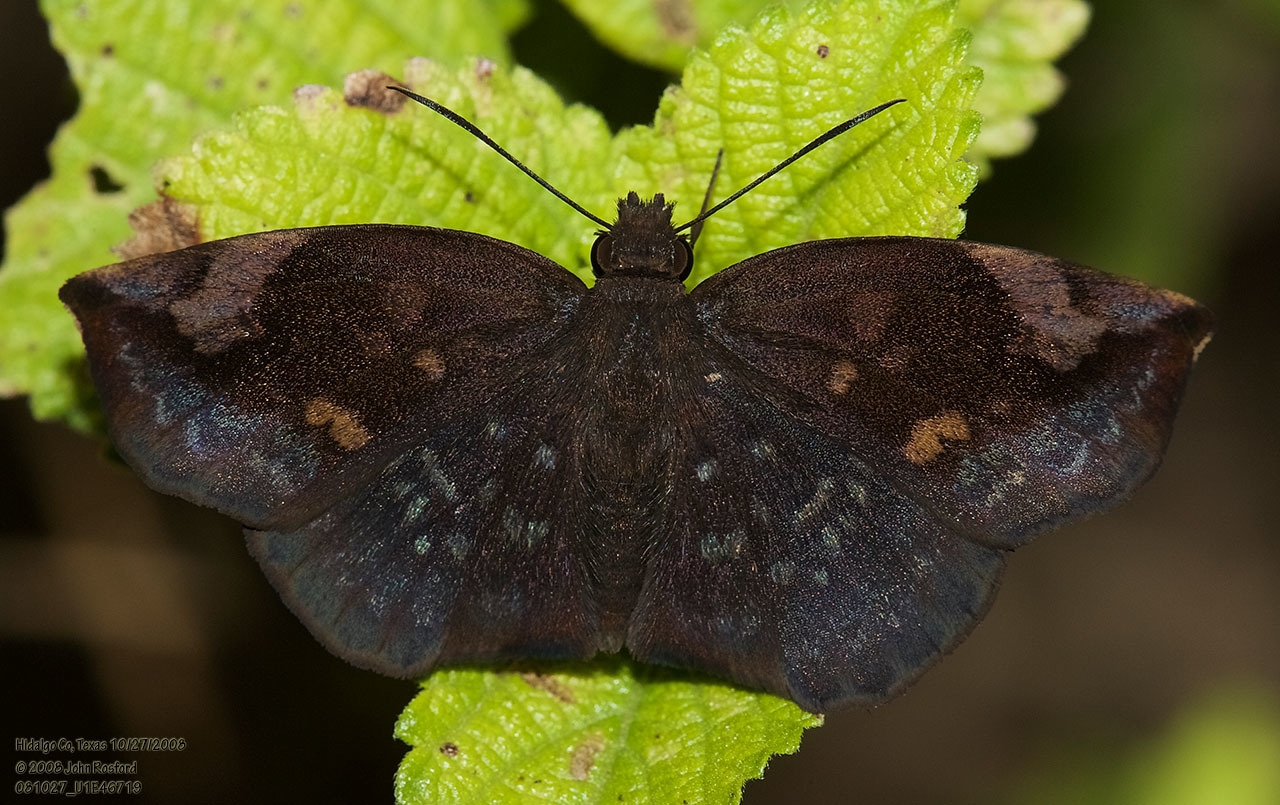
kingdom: Animalia
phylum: Arthropoda
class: Insecta
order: Lepidoptera
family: Hesperiidae
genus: Achlyodes
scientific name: Achlyodes thraso
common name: Sickle-winged skipper
